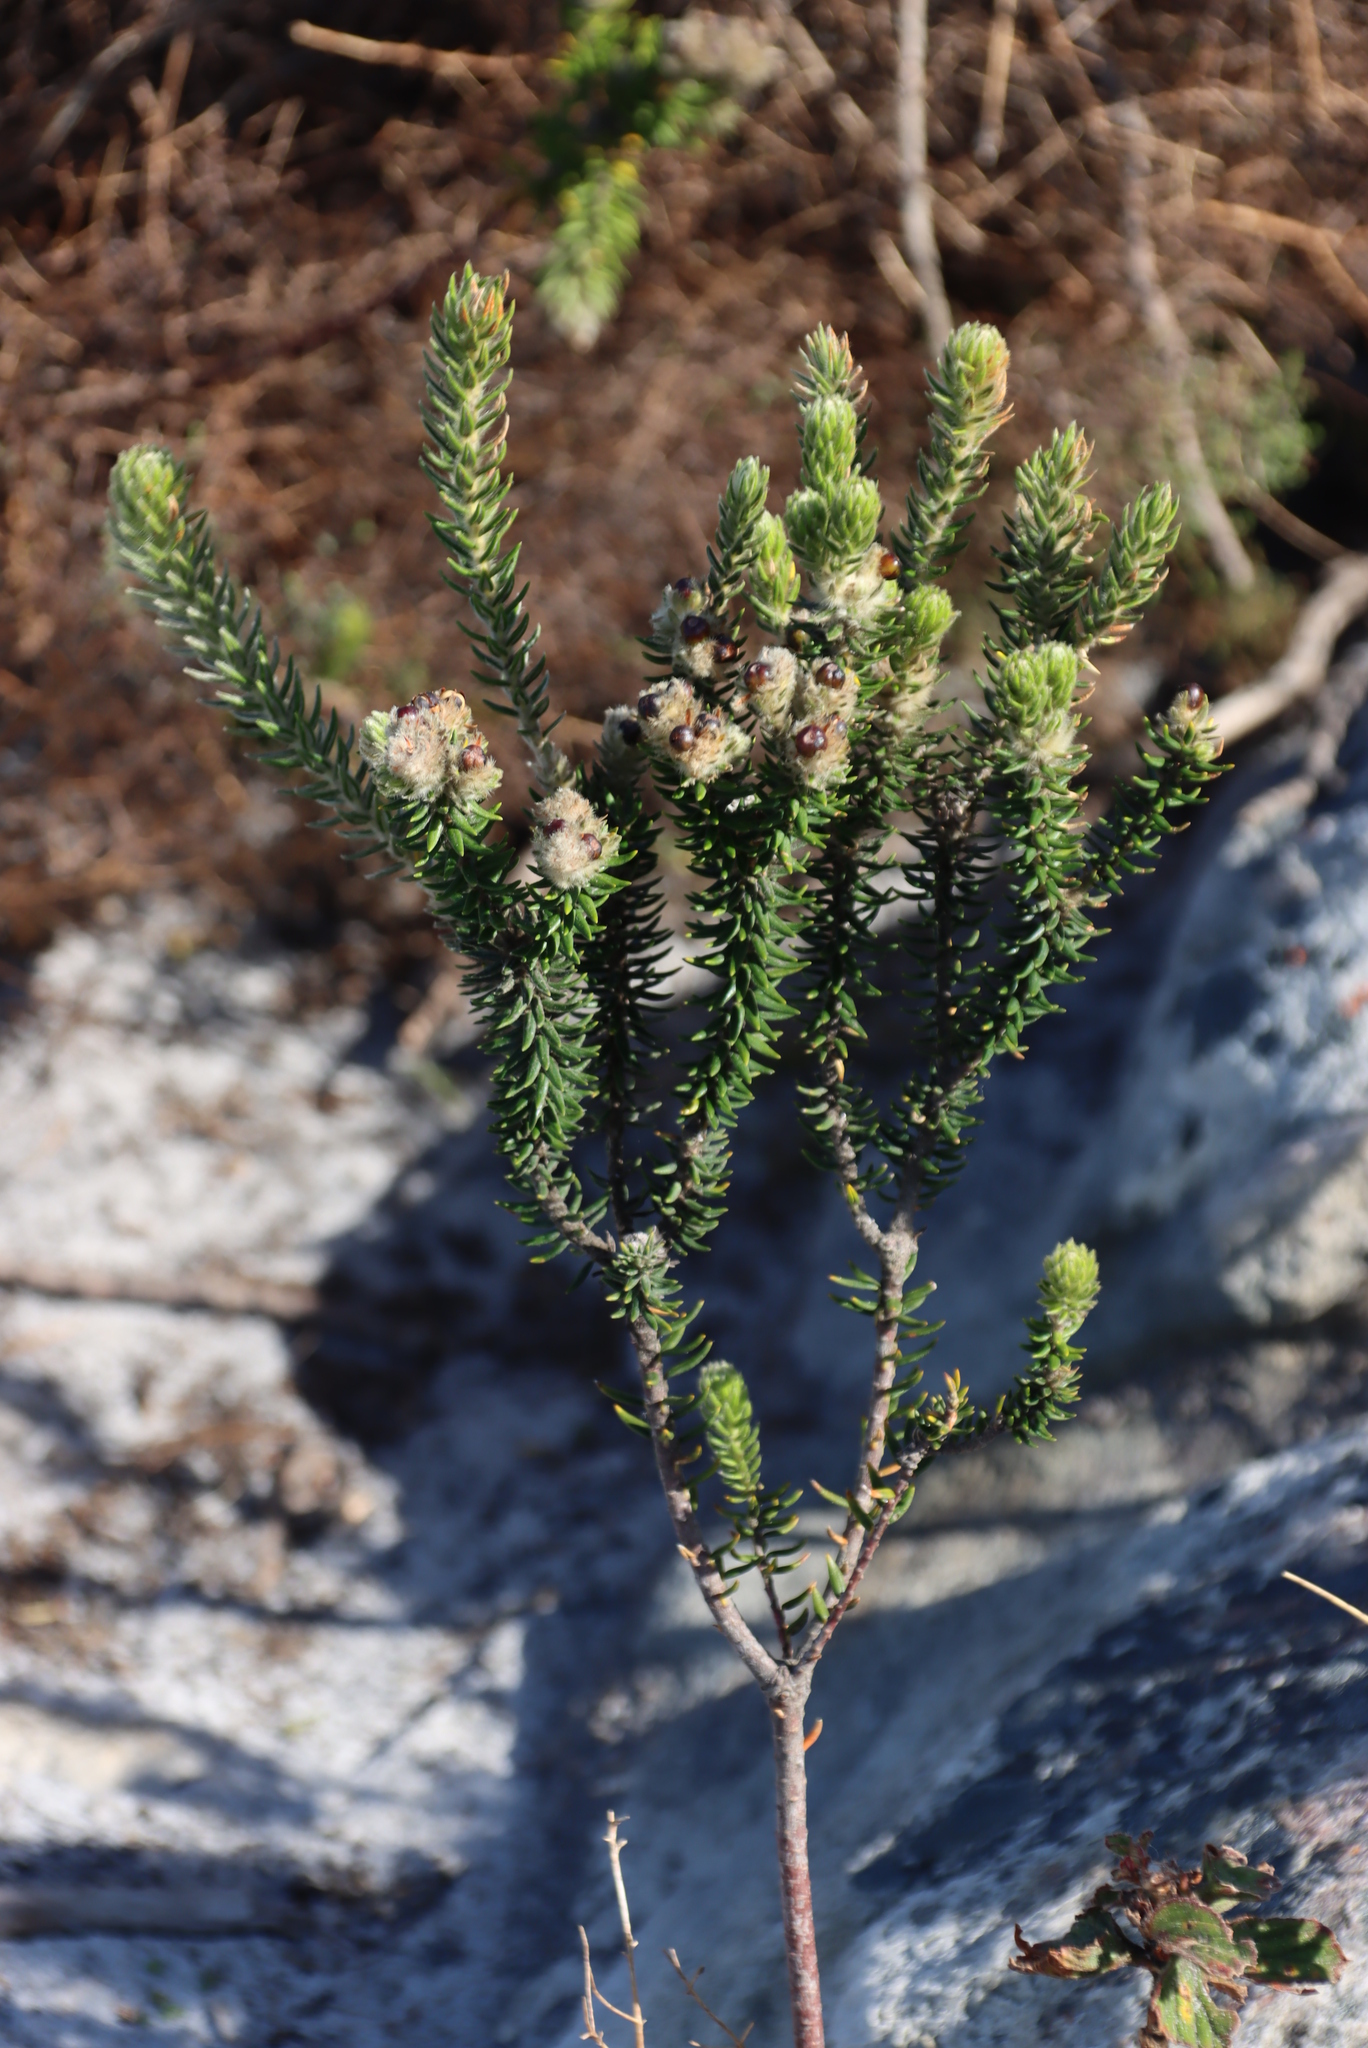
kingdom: Plantae
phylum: Tracheophyta
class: Magnoliopsida
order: Rosales
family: Rhamnaceae
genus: Phylica
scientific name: Phylica strigosa
